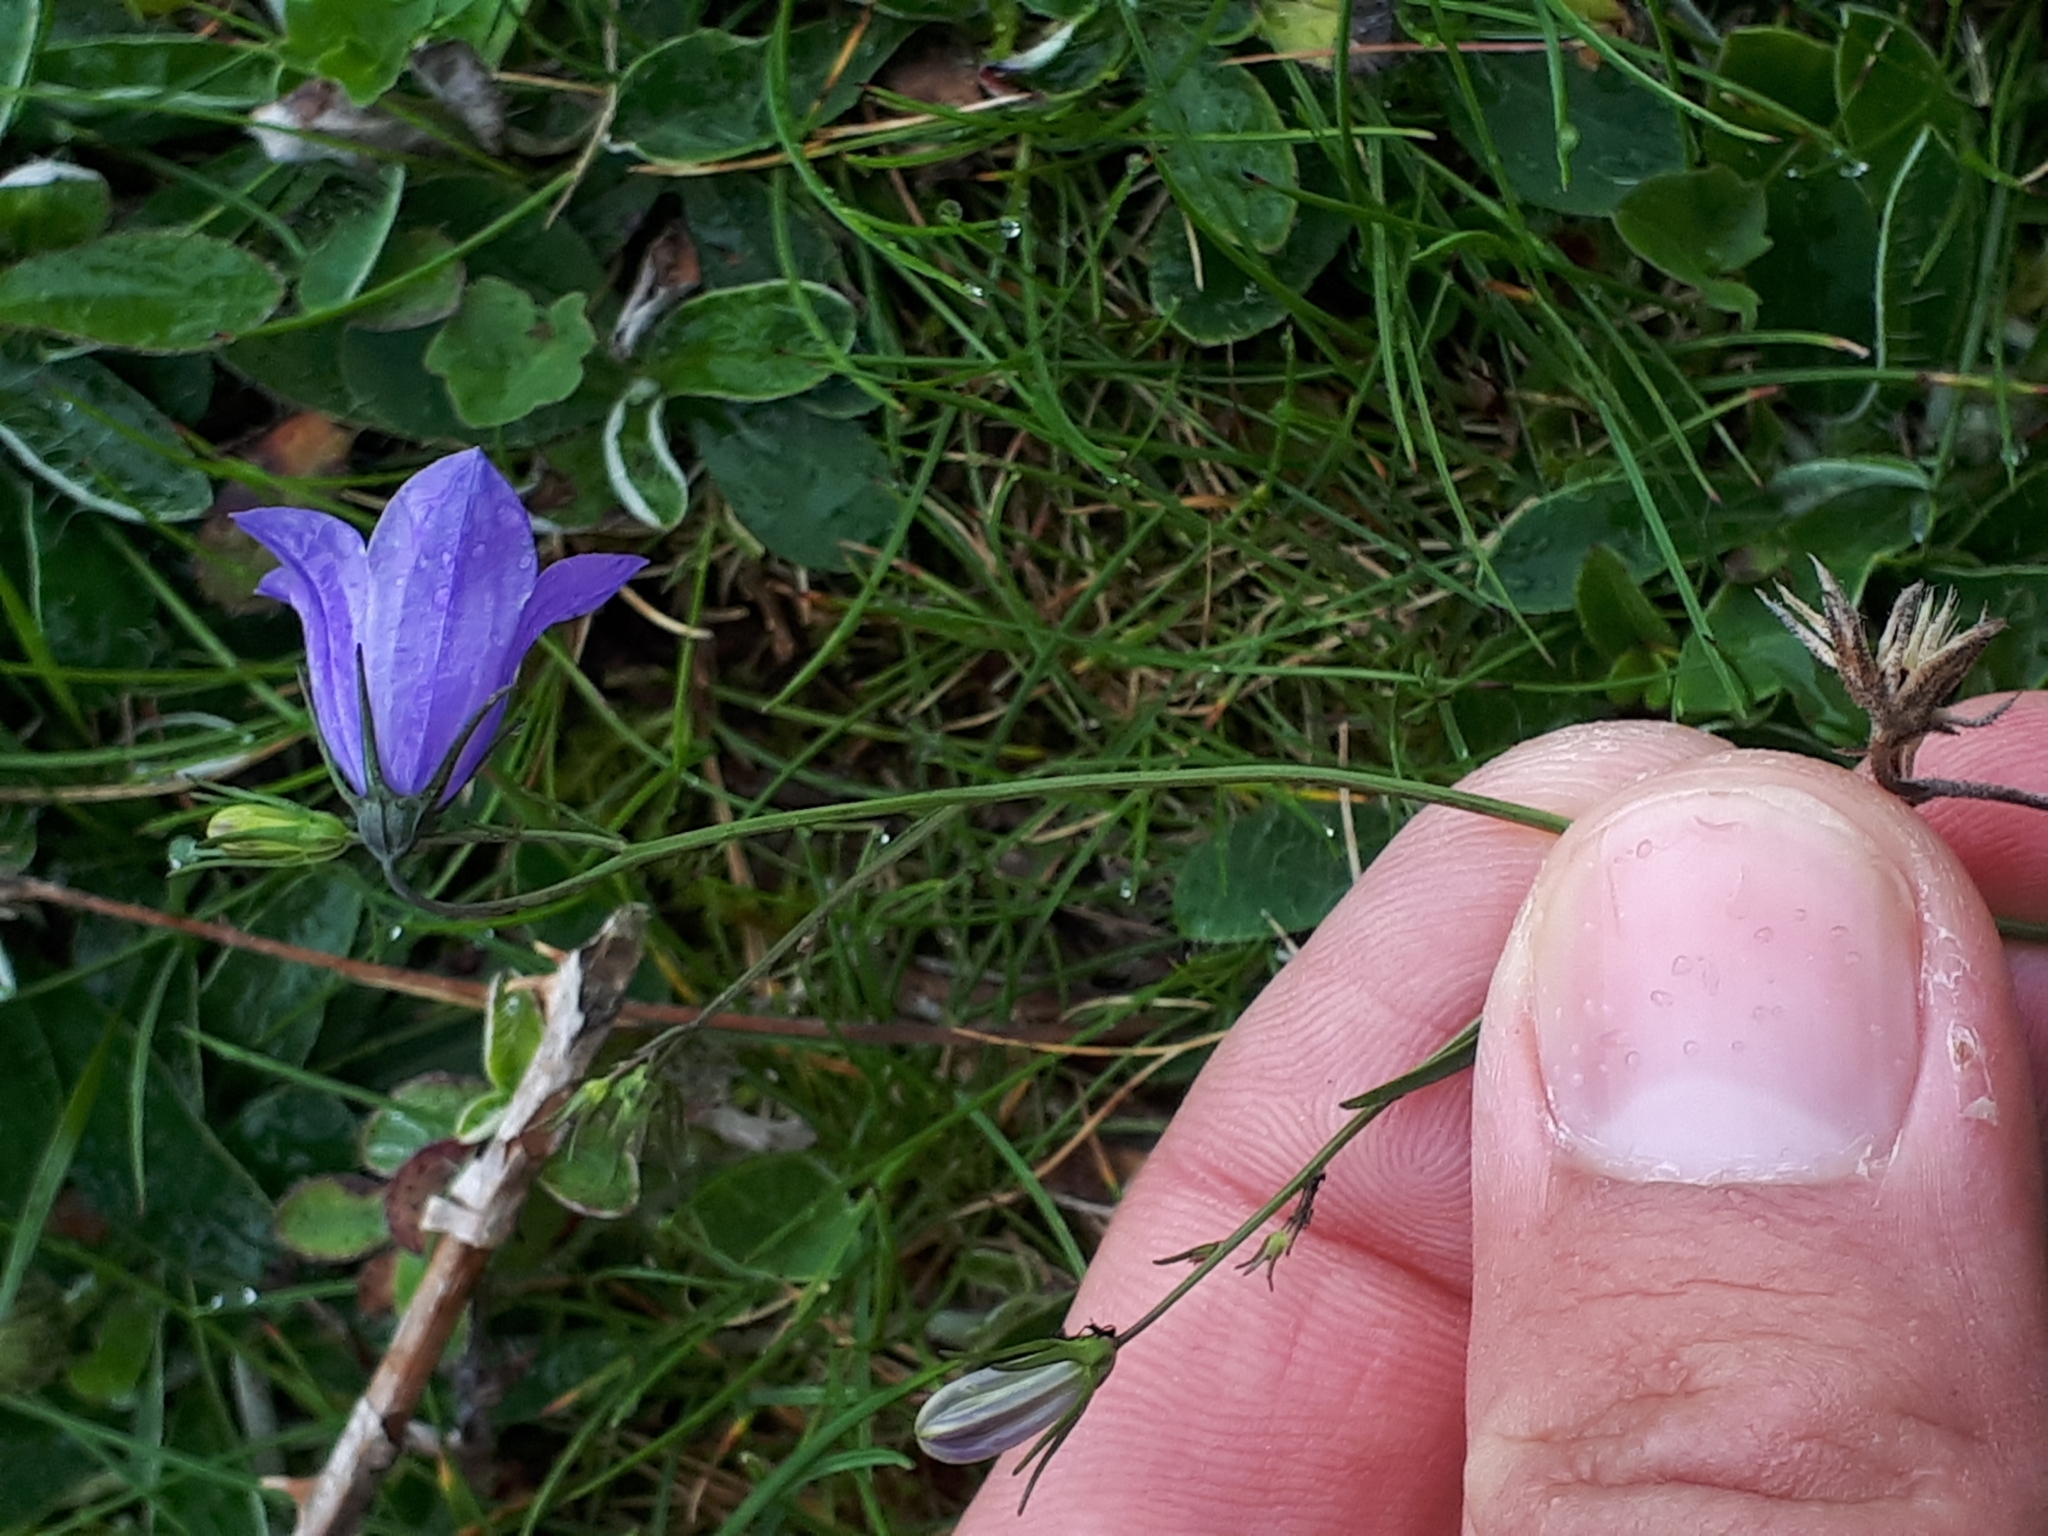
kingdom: Plantae
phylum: Tracheophyta
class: Magnoliopsida
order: Asterales
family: Campanulaceae
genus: Campanula
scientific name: Campanula rotundifolia
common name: Harebell
